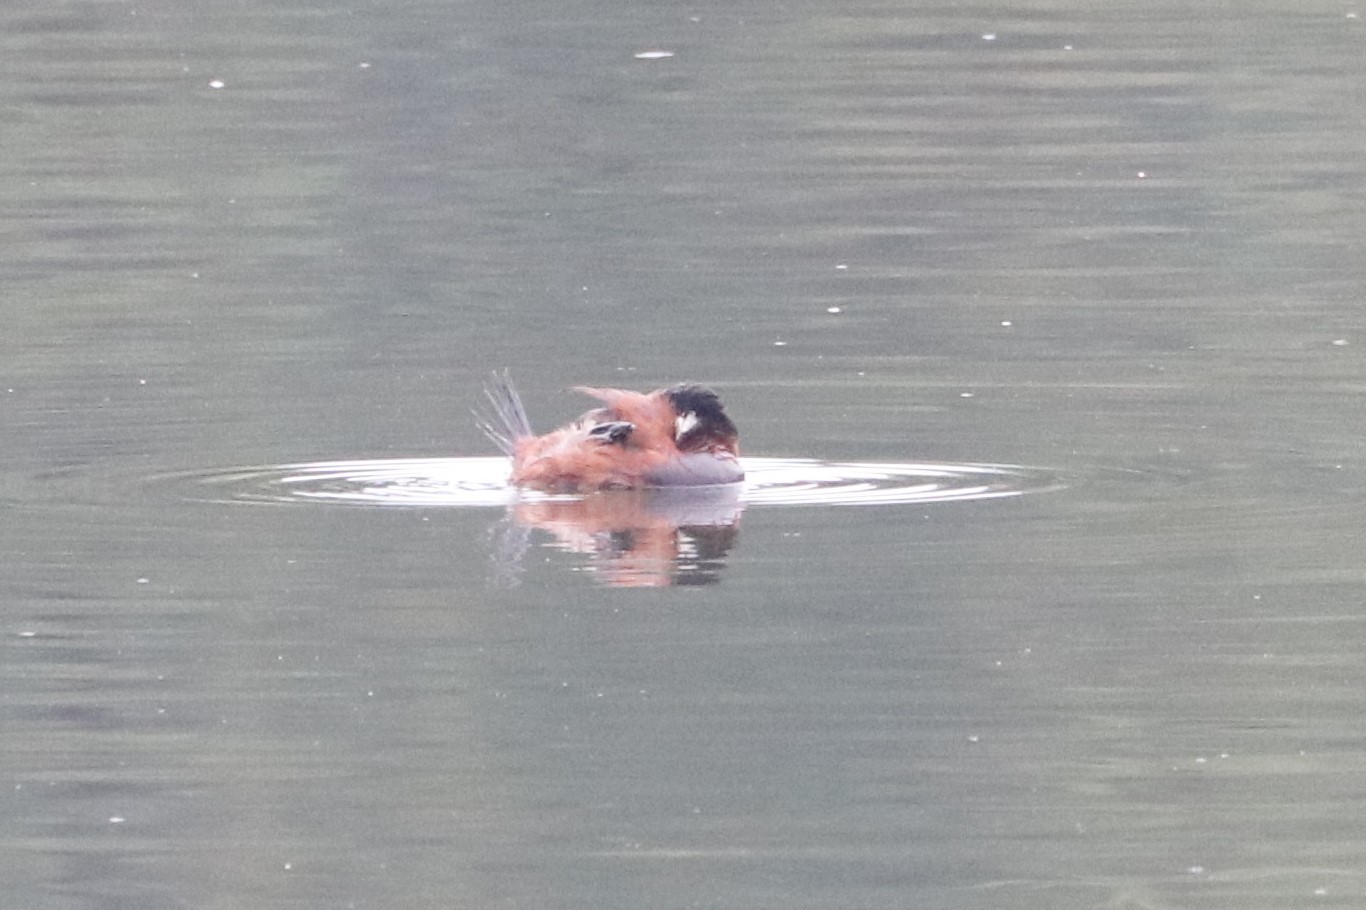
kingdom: Animalia
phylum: Chordata
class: Aves
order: Anseriformes
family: Anatidae
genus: Oxyura
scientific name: Oxyura ferruginea
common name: Andean duck
